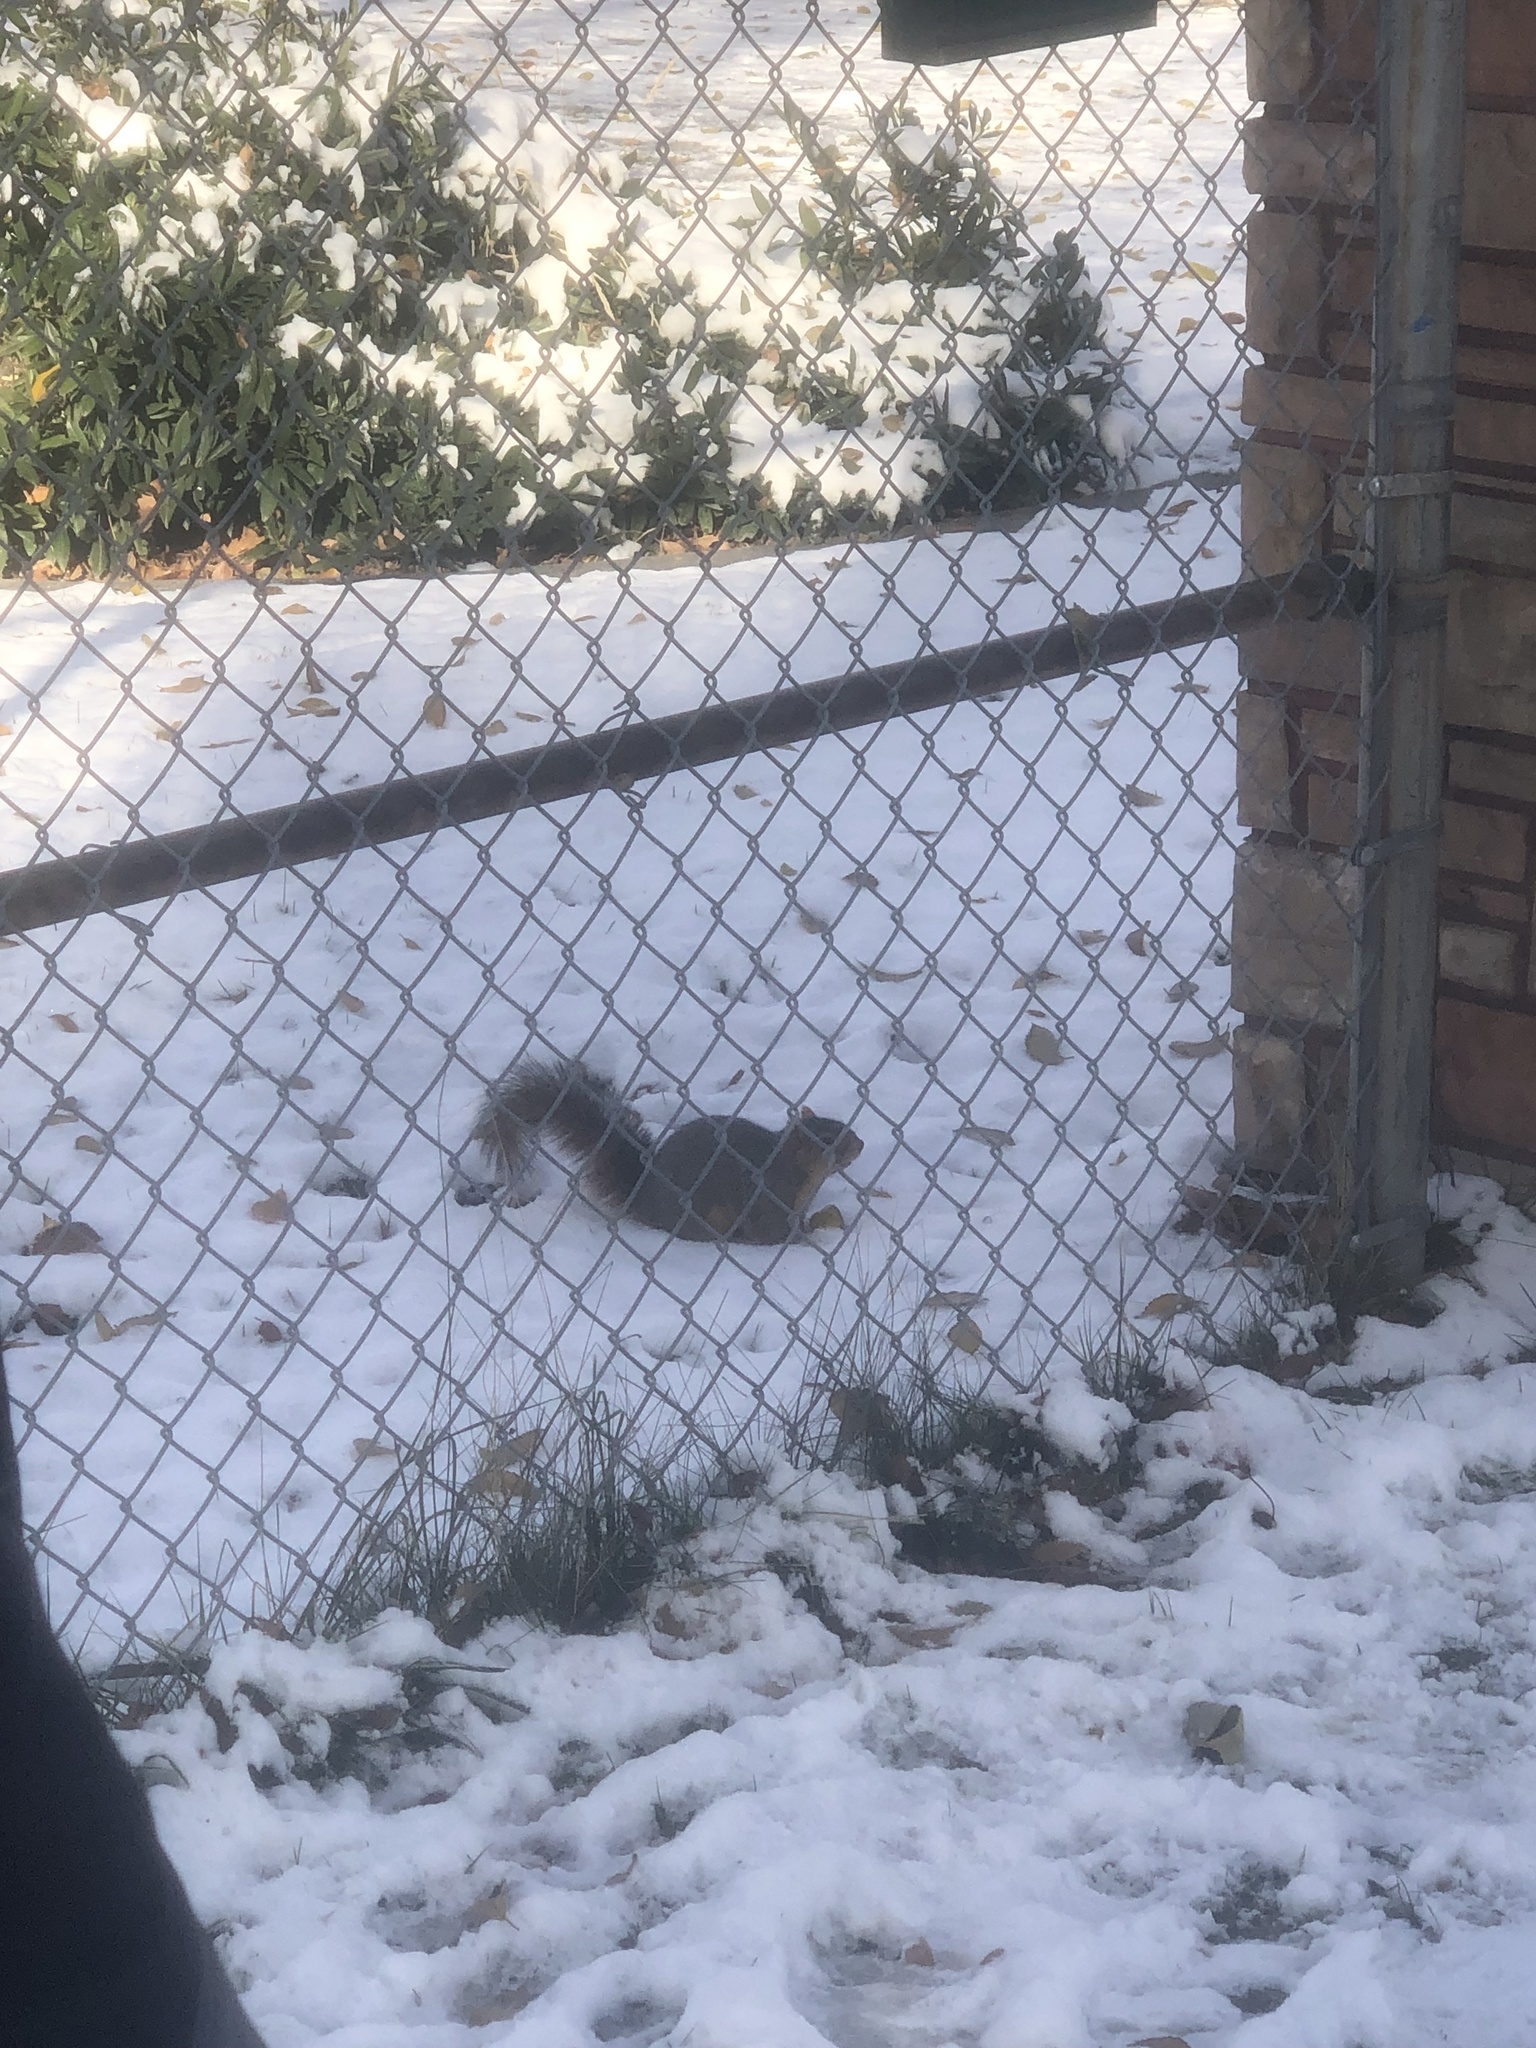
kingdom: Animalia
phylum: Chordata
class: Mammalia
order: Rodentia
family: Sciuridae
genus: Sciurus
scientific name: Sciurus niger
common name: Fox squirrel
